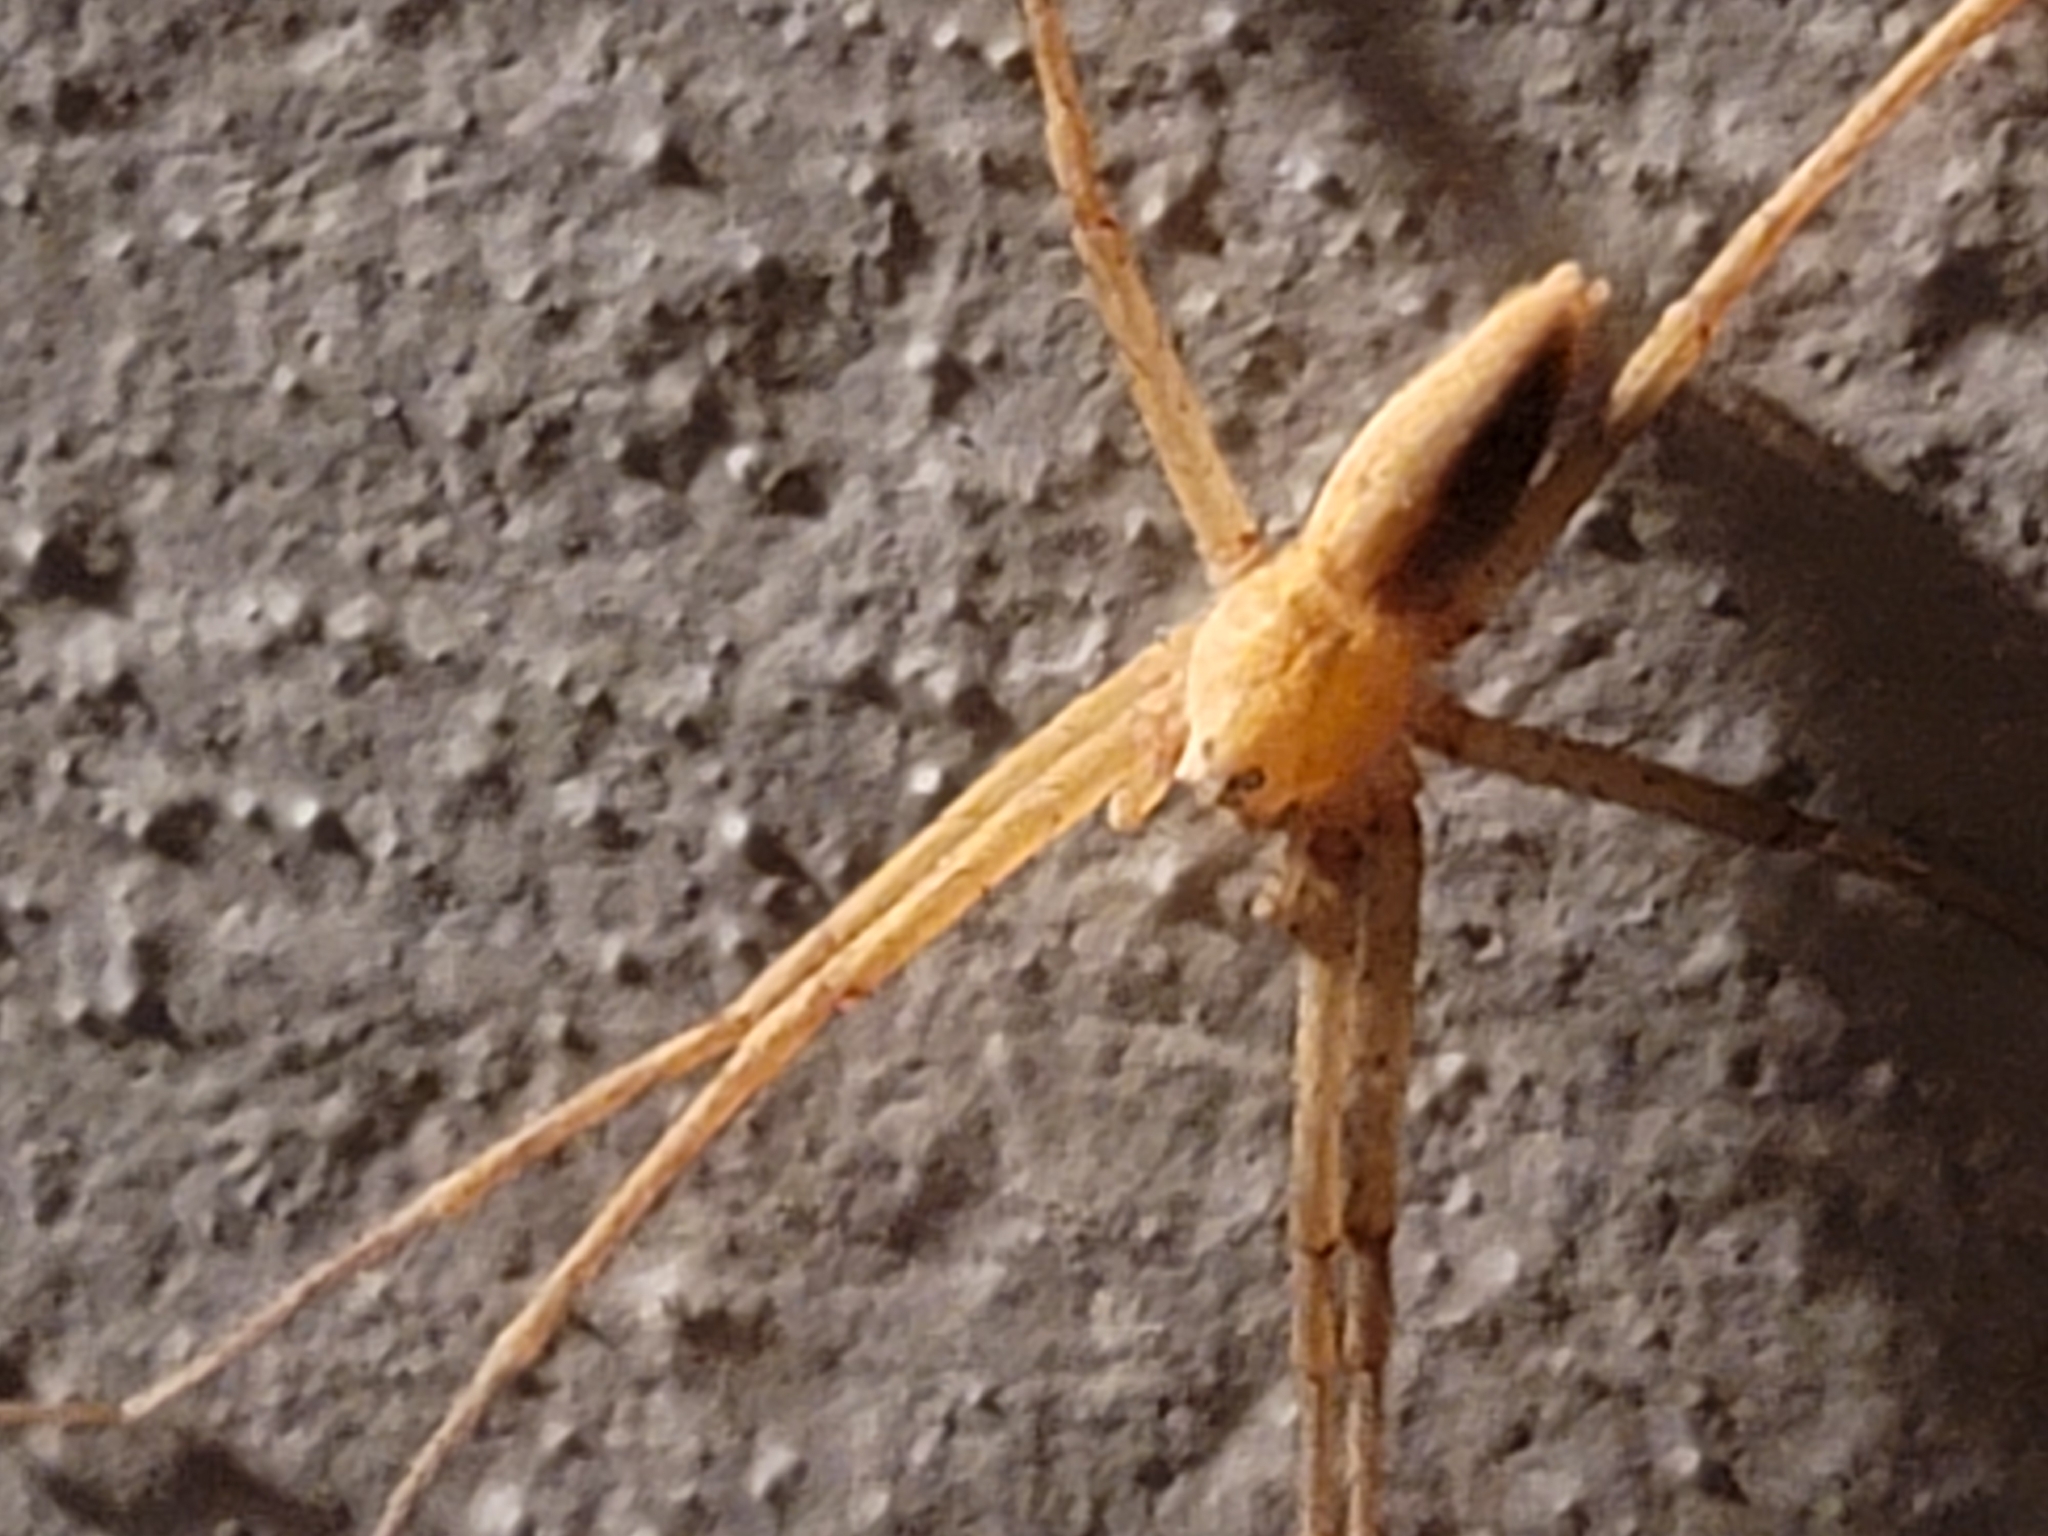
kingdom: Animalia
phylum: Arthropoda
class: Arachnida
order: Araneae
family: Pisauridae
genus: Pisaurina
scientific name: Pisaurina mira
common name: American nursery web spider
